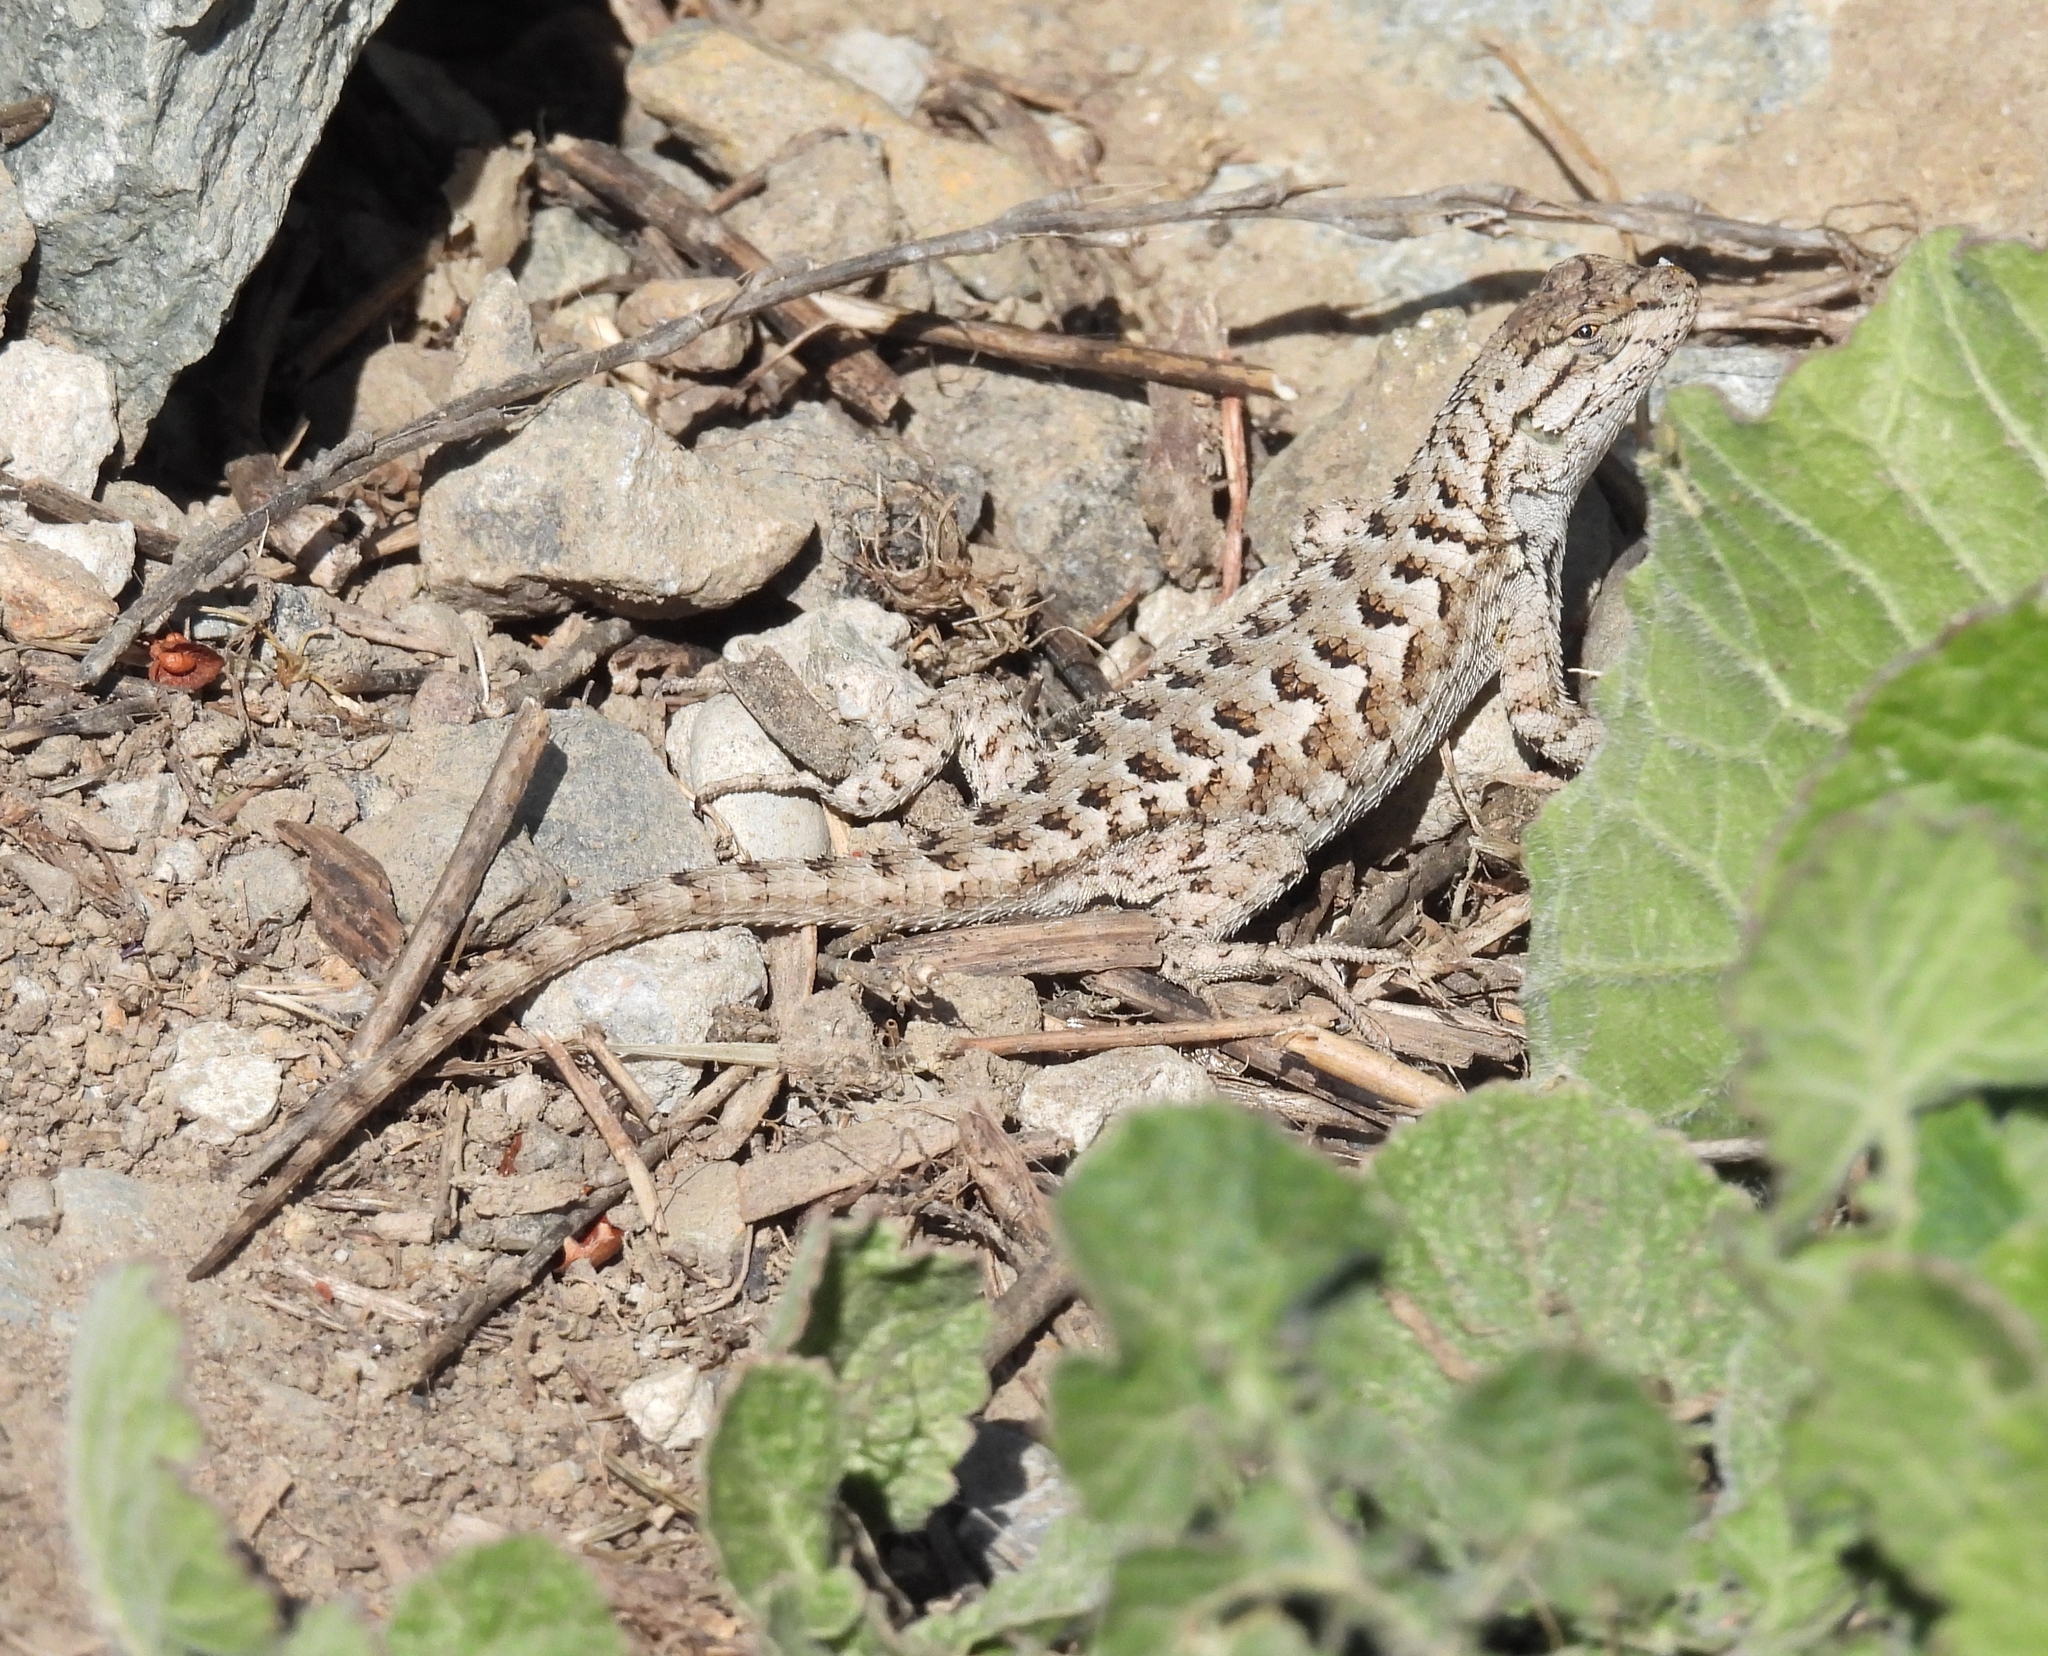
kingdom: Animalia
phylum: Chordata
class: Squamata
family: Phrynosomatidae
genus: Sceloporus
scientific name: Sceloporus occidentalis
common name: Western fence lizard
